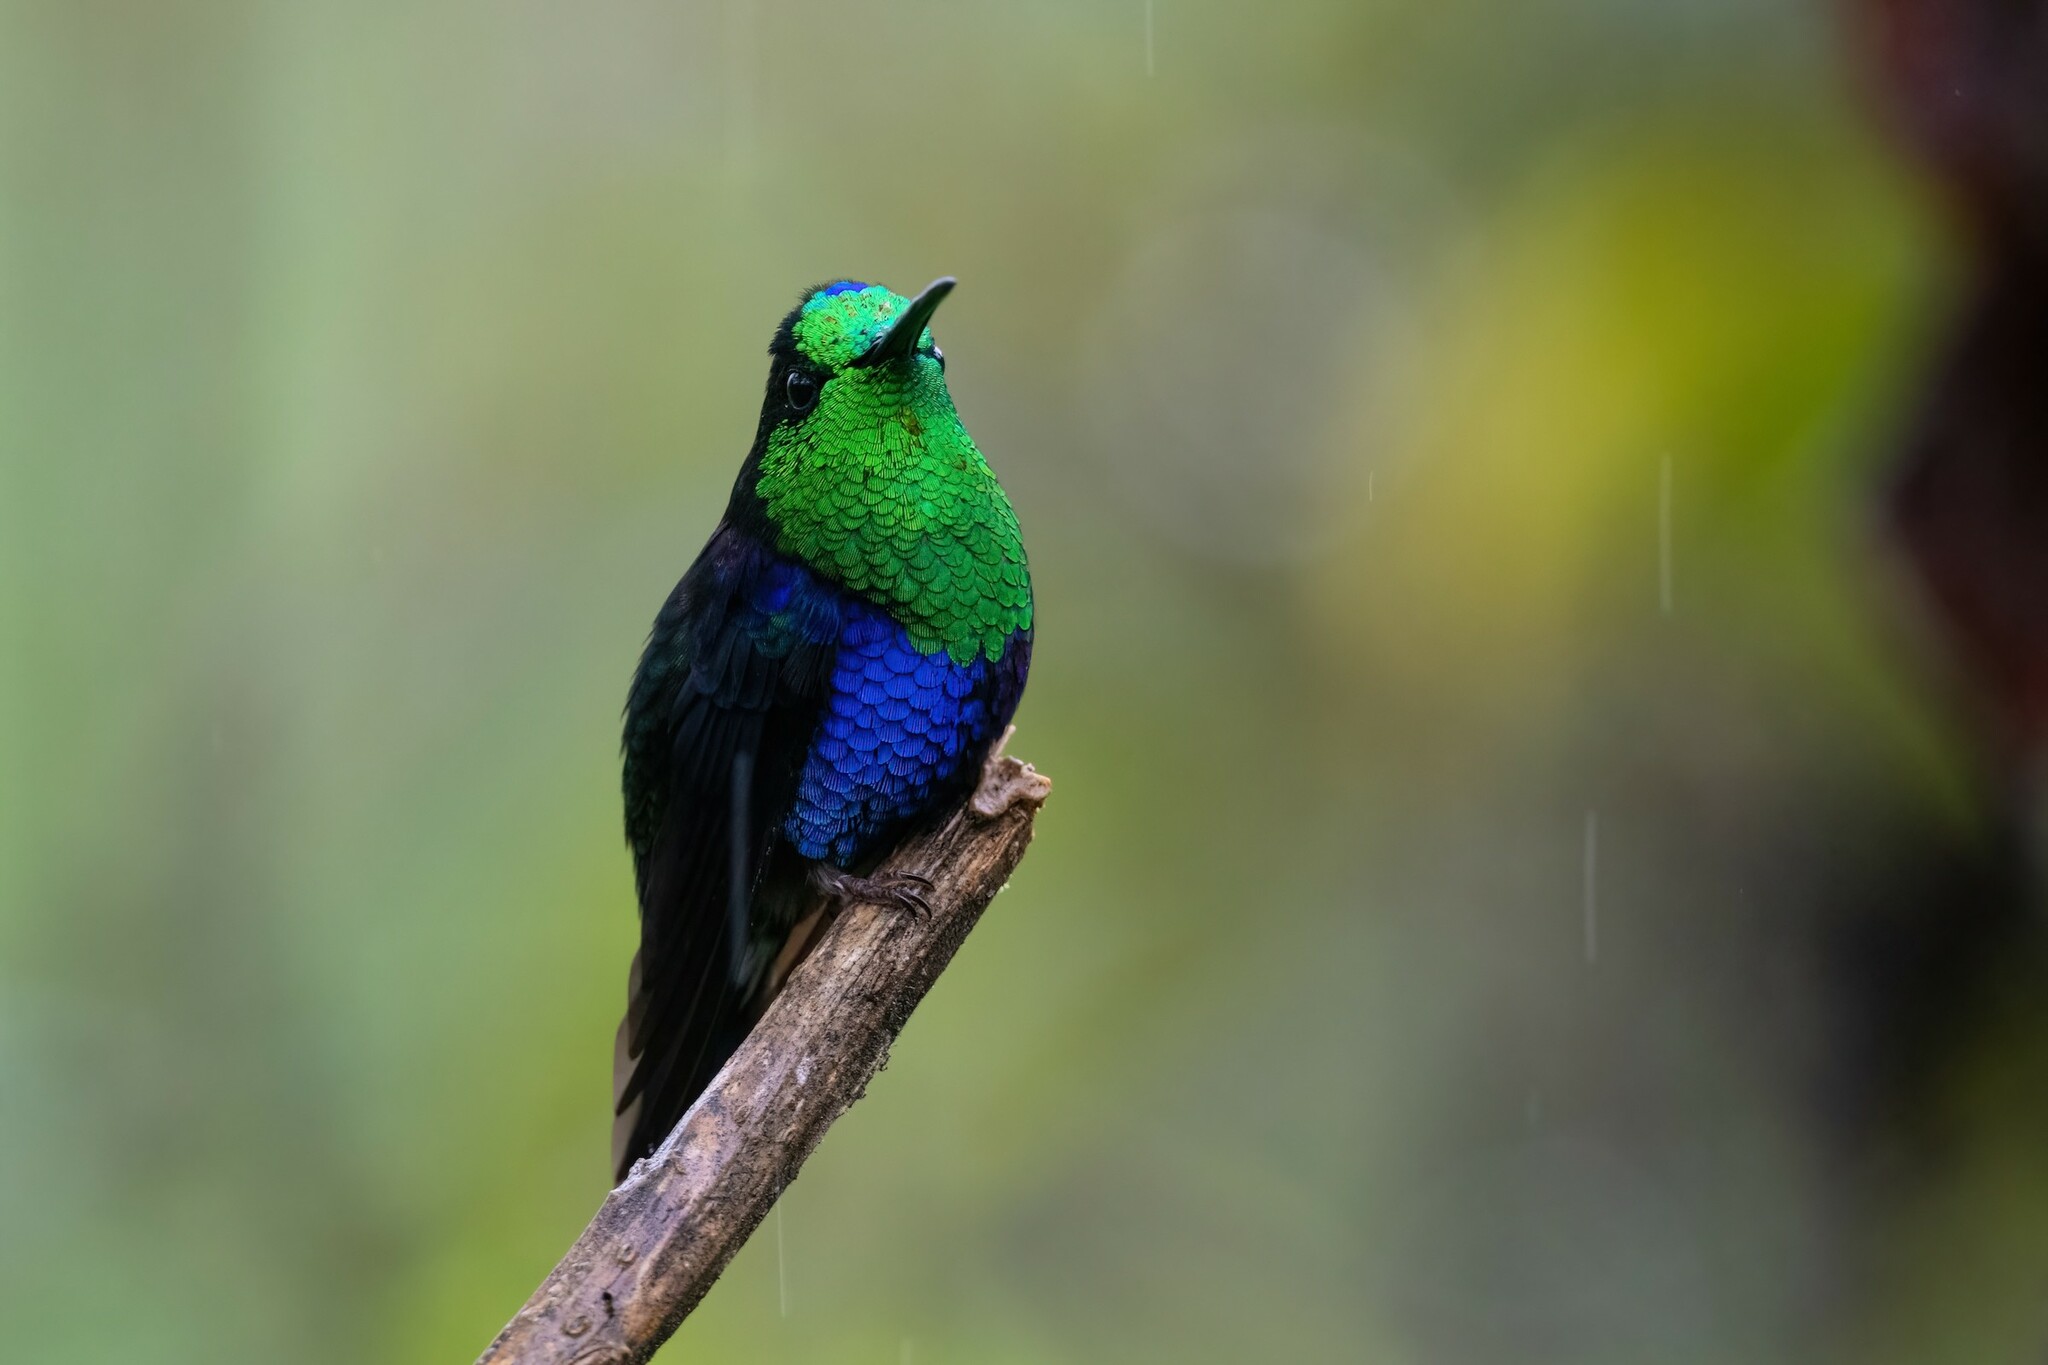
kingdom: Animalia
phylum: Chordata
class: Aves
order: Apodiformes
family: Trochilidae
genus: Thalurania
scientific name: Thalurania colombica
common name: Crowned woodnymph
